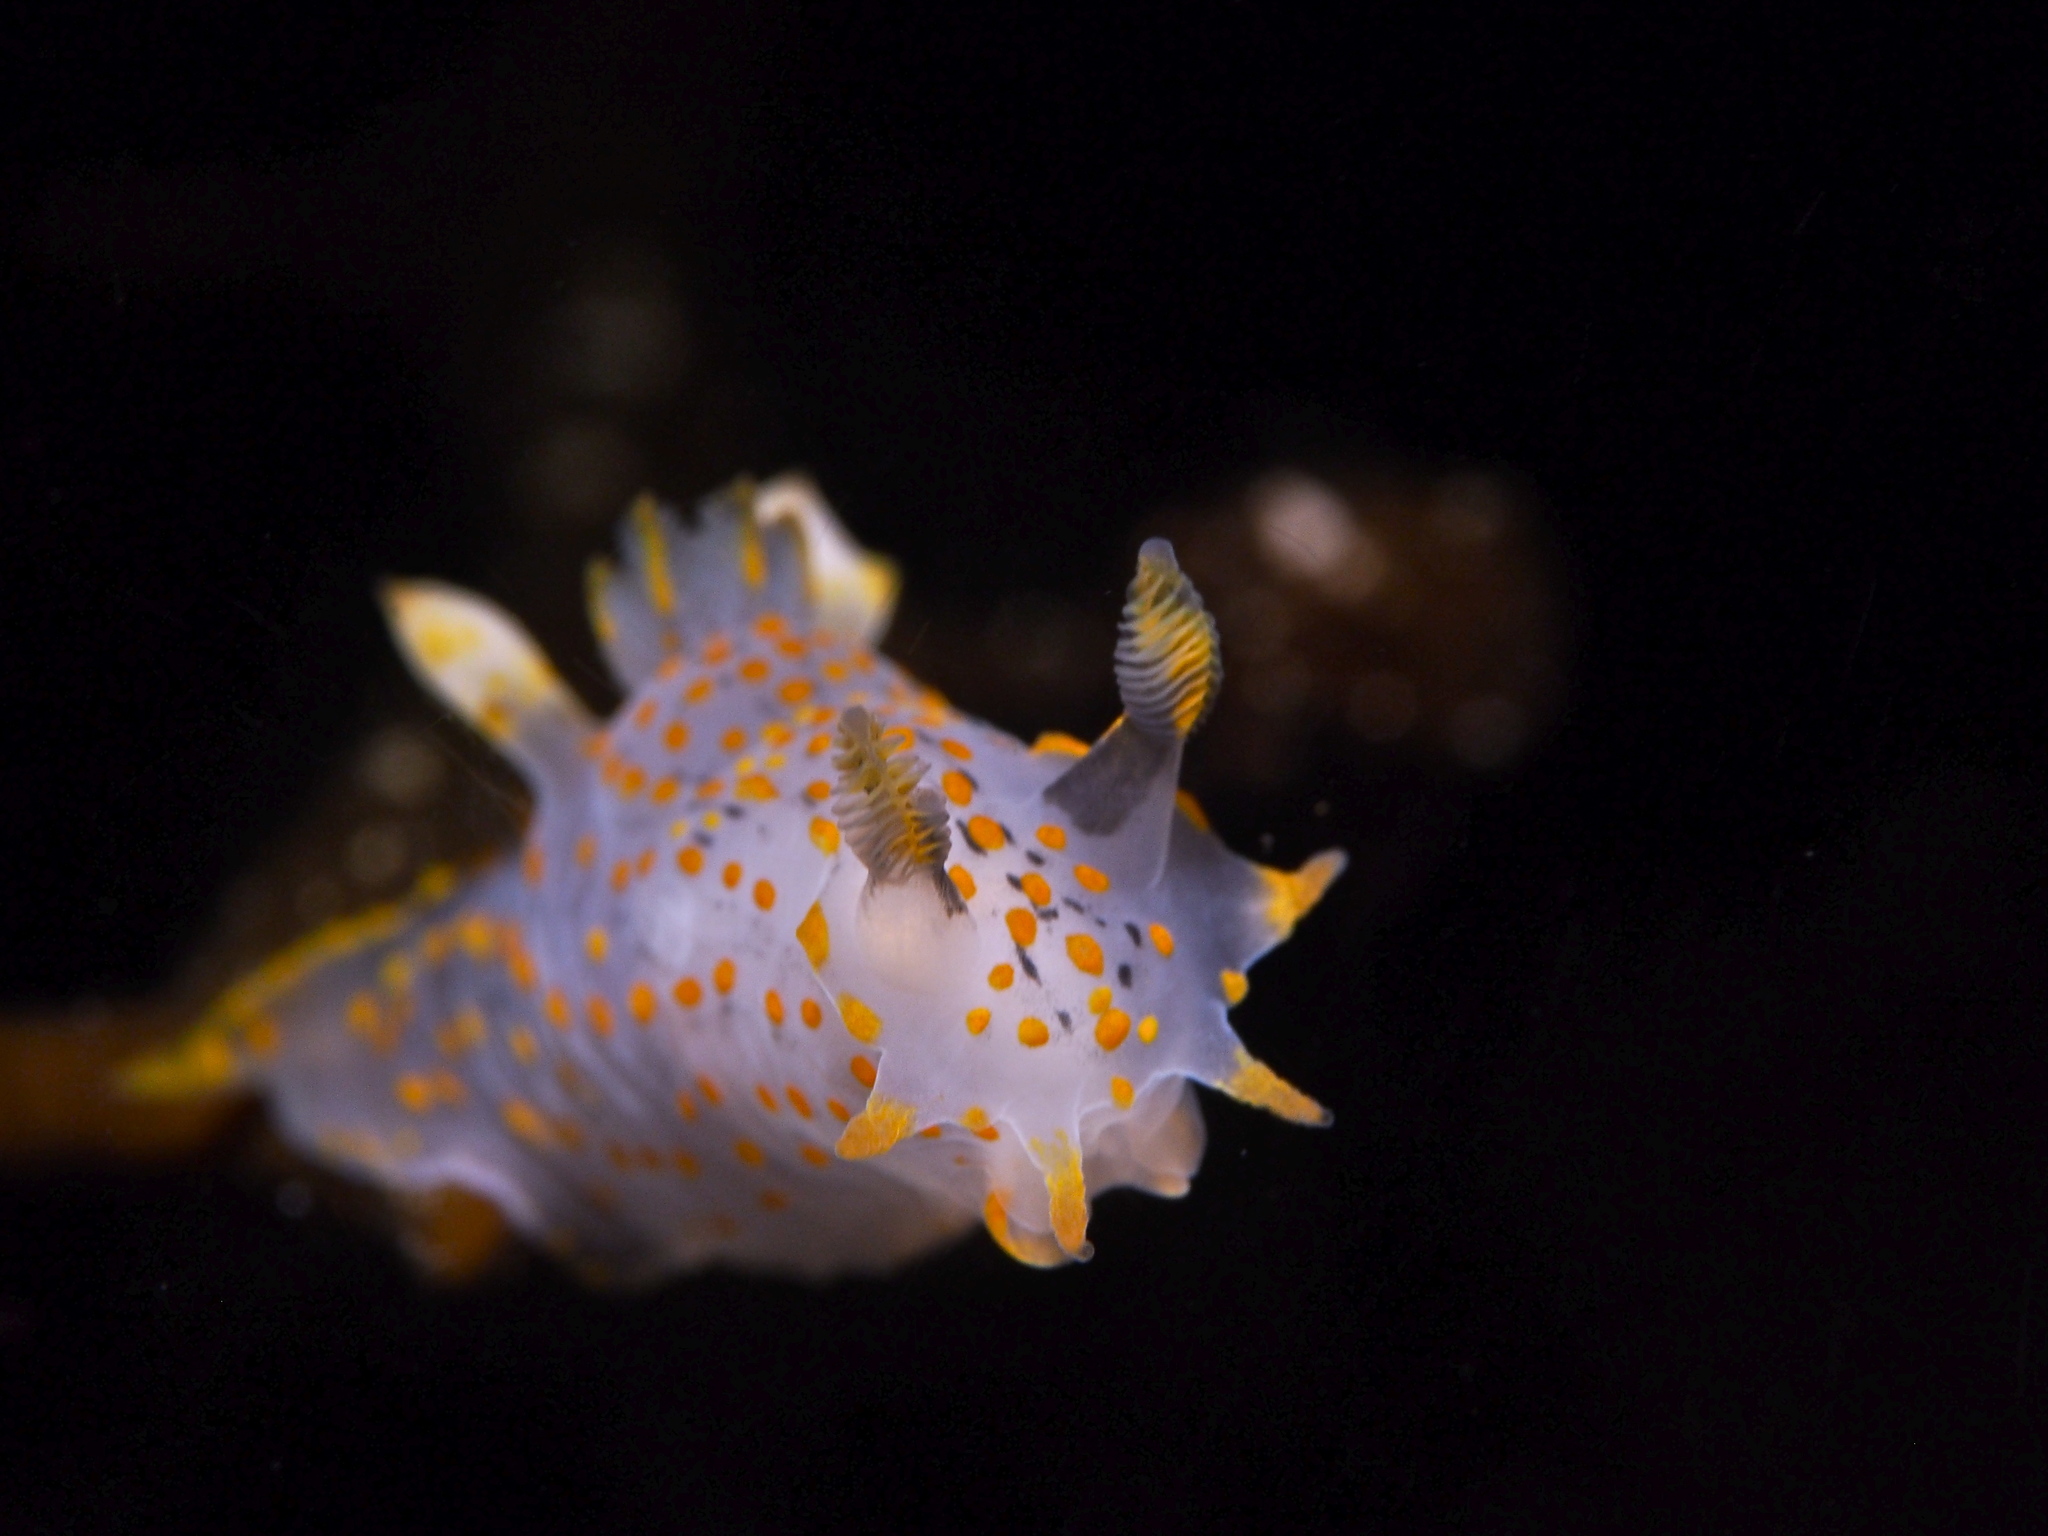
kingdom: Animalia
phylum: Mollusca
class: Gastropoda
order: Nudibranchia
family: Polyceridae
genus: Polycera
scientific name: Polycera quadrilineata
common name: Four-striped polycera
